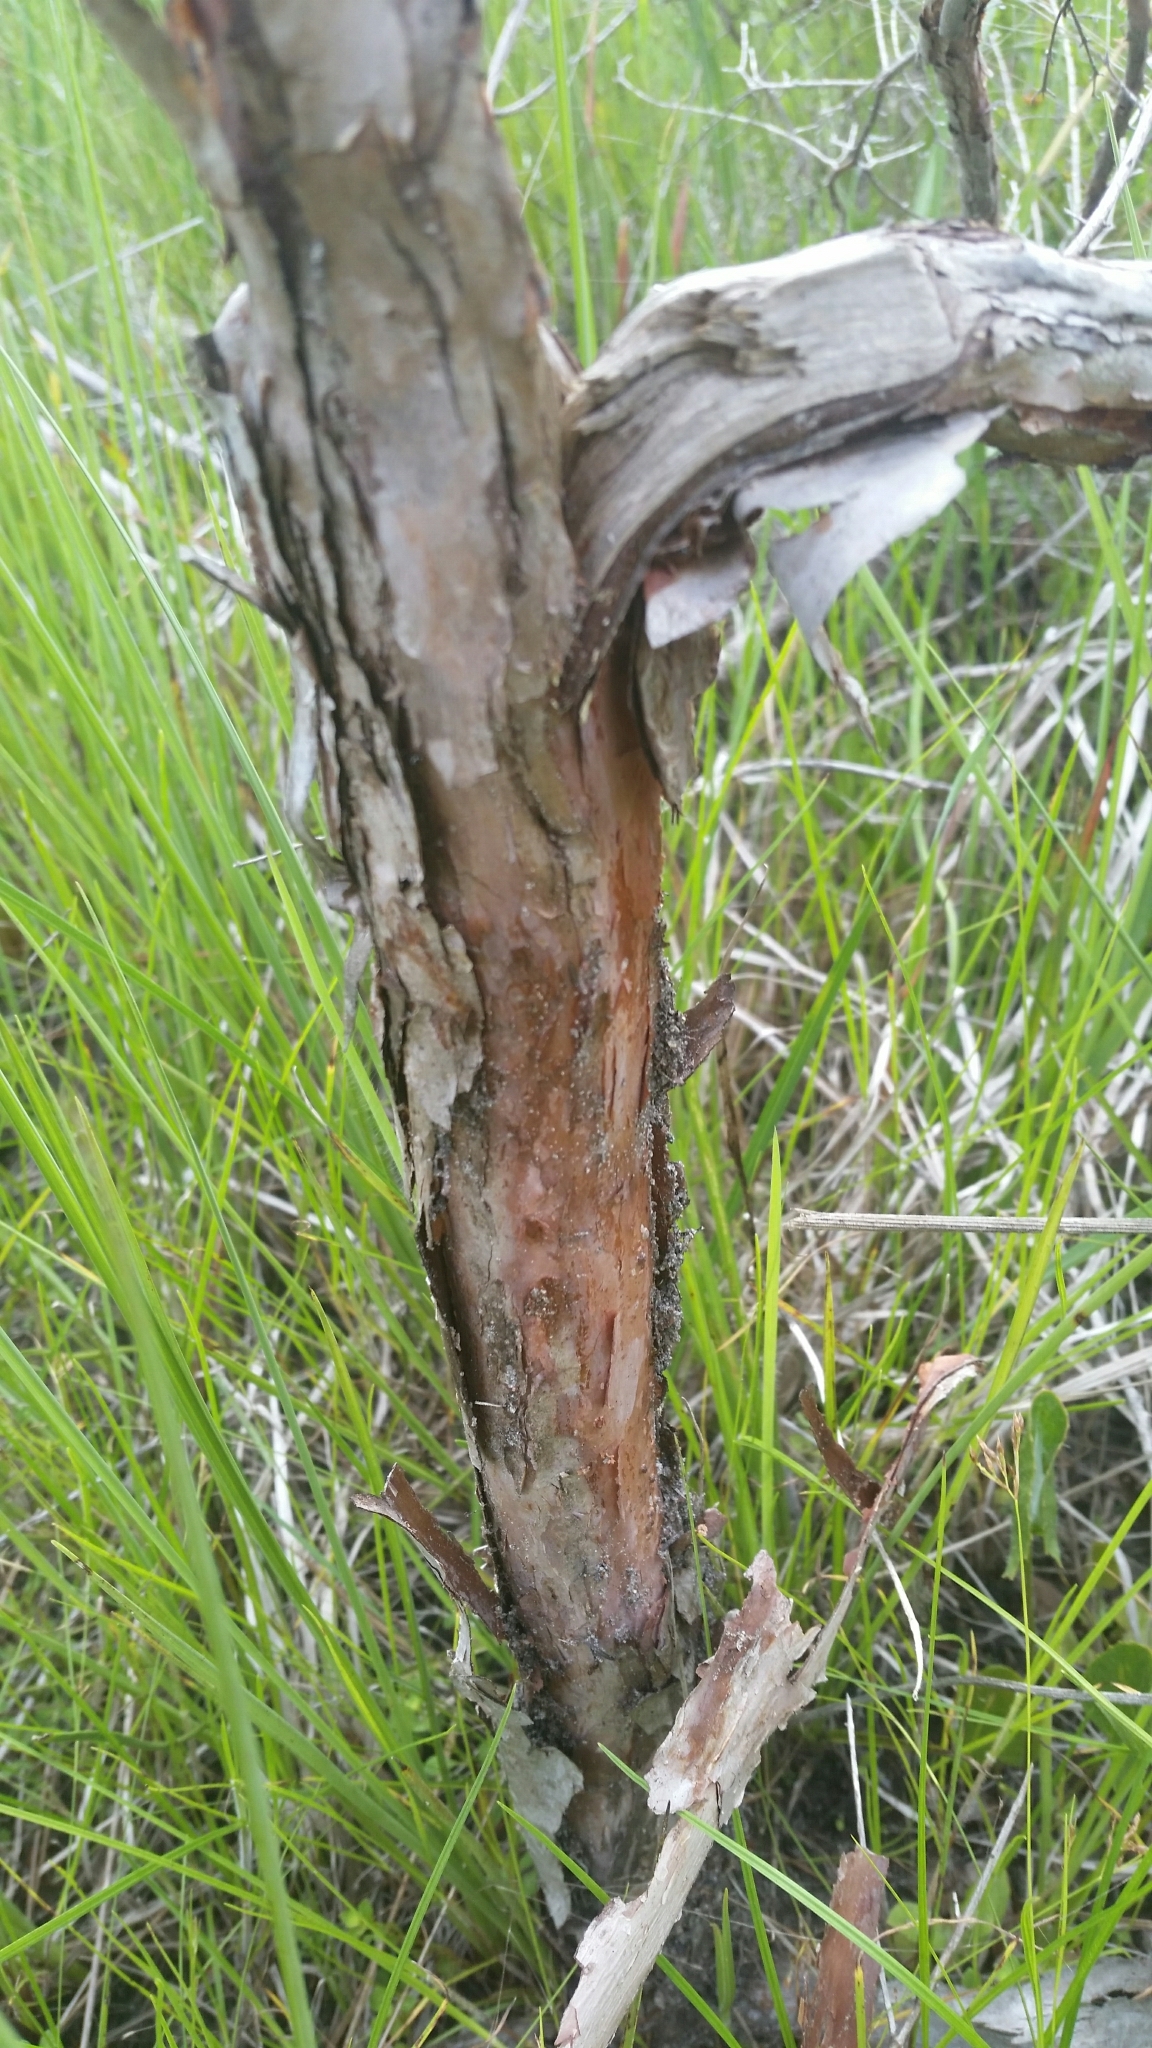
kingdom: Plantae
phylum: Tracheophyta
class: Magnoliopsida
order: Malpighiales
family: Hypericaceae
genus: Hypericum
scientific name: Hypericum fasciculatum
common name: Peelbark st. john's wort
